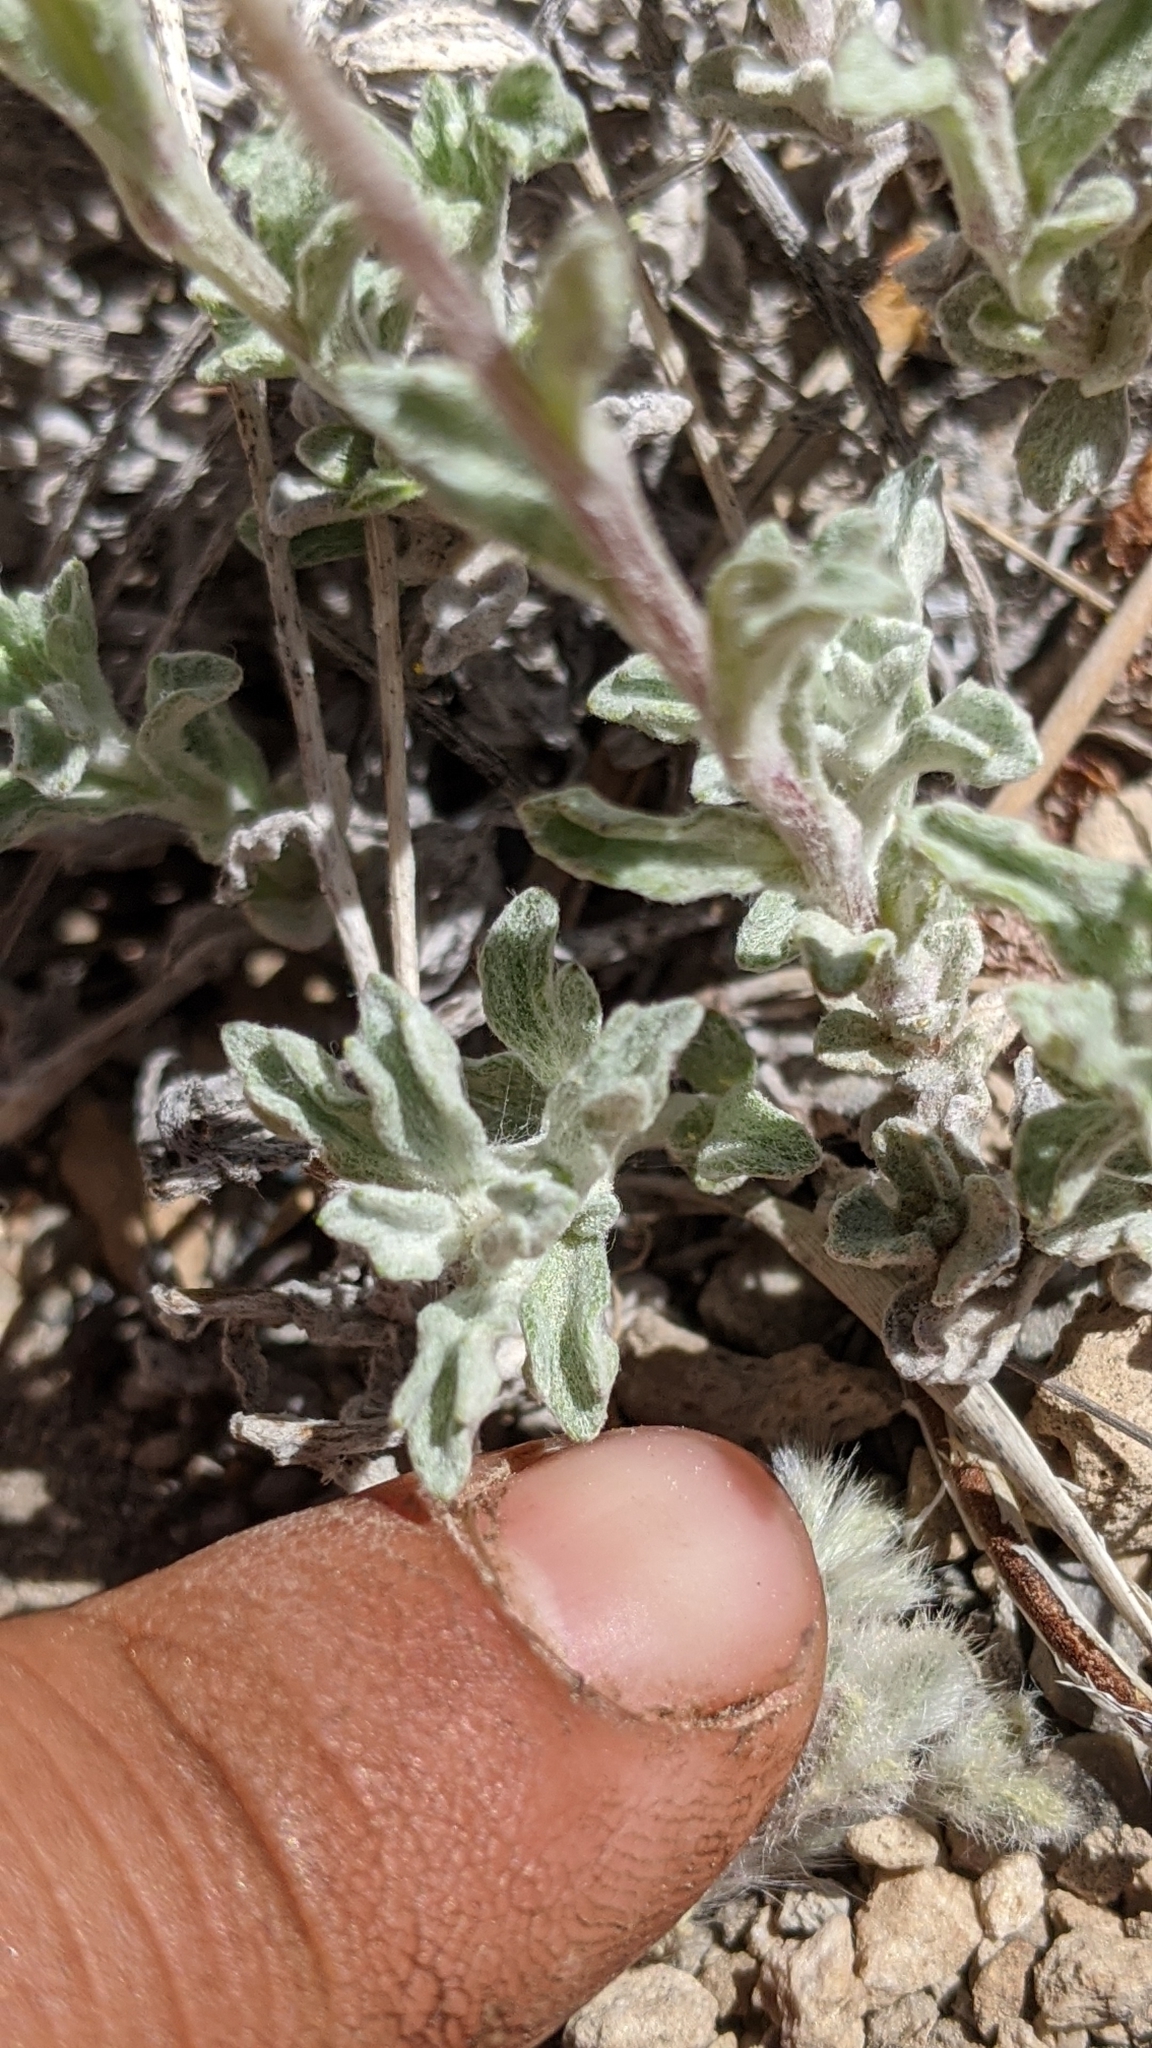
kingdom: Plantae
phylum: Tracheophyta
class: Magnoliopsida
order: Asterales
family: Asteraceae
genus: Eriophyllum
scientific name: Eriophyllum lanatum
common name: Common woolly-sunflower
